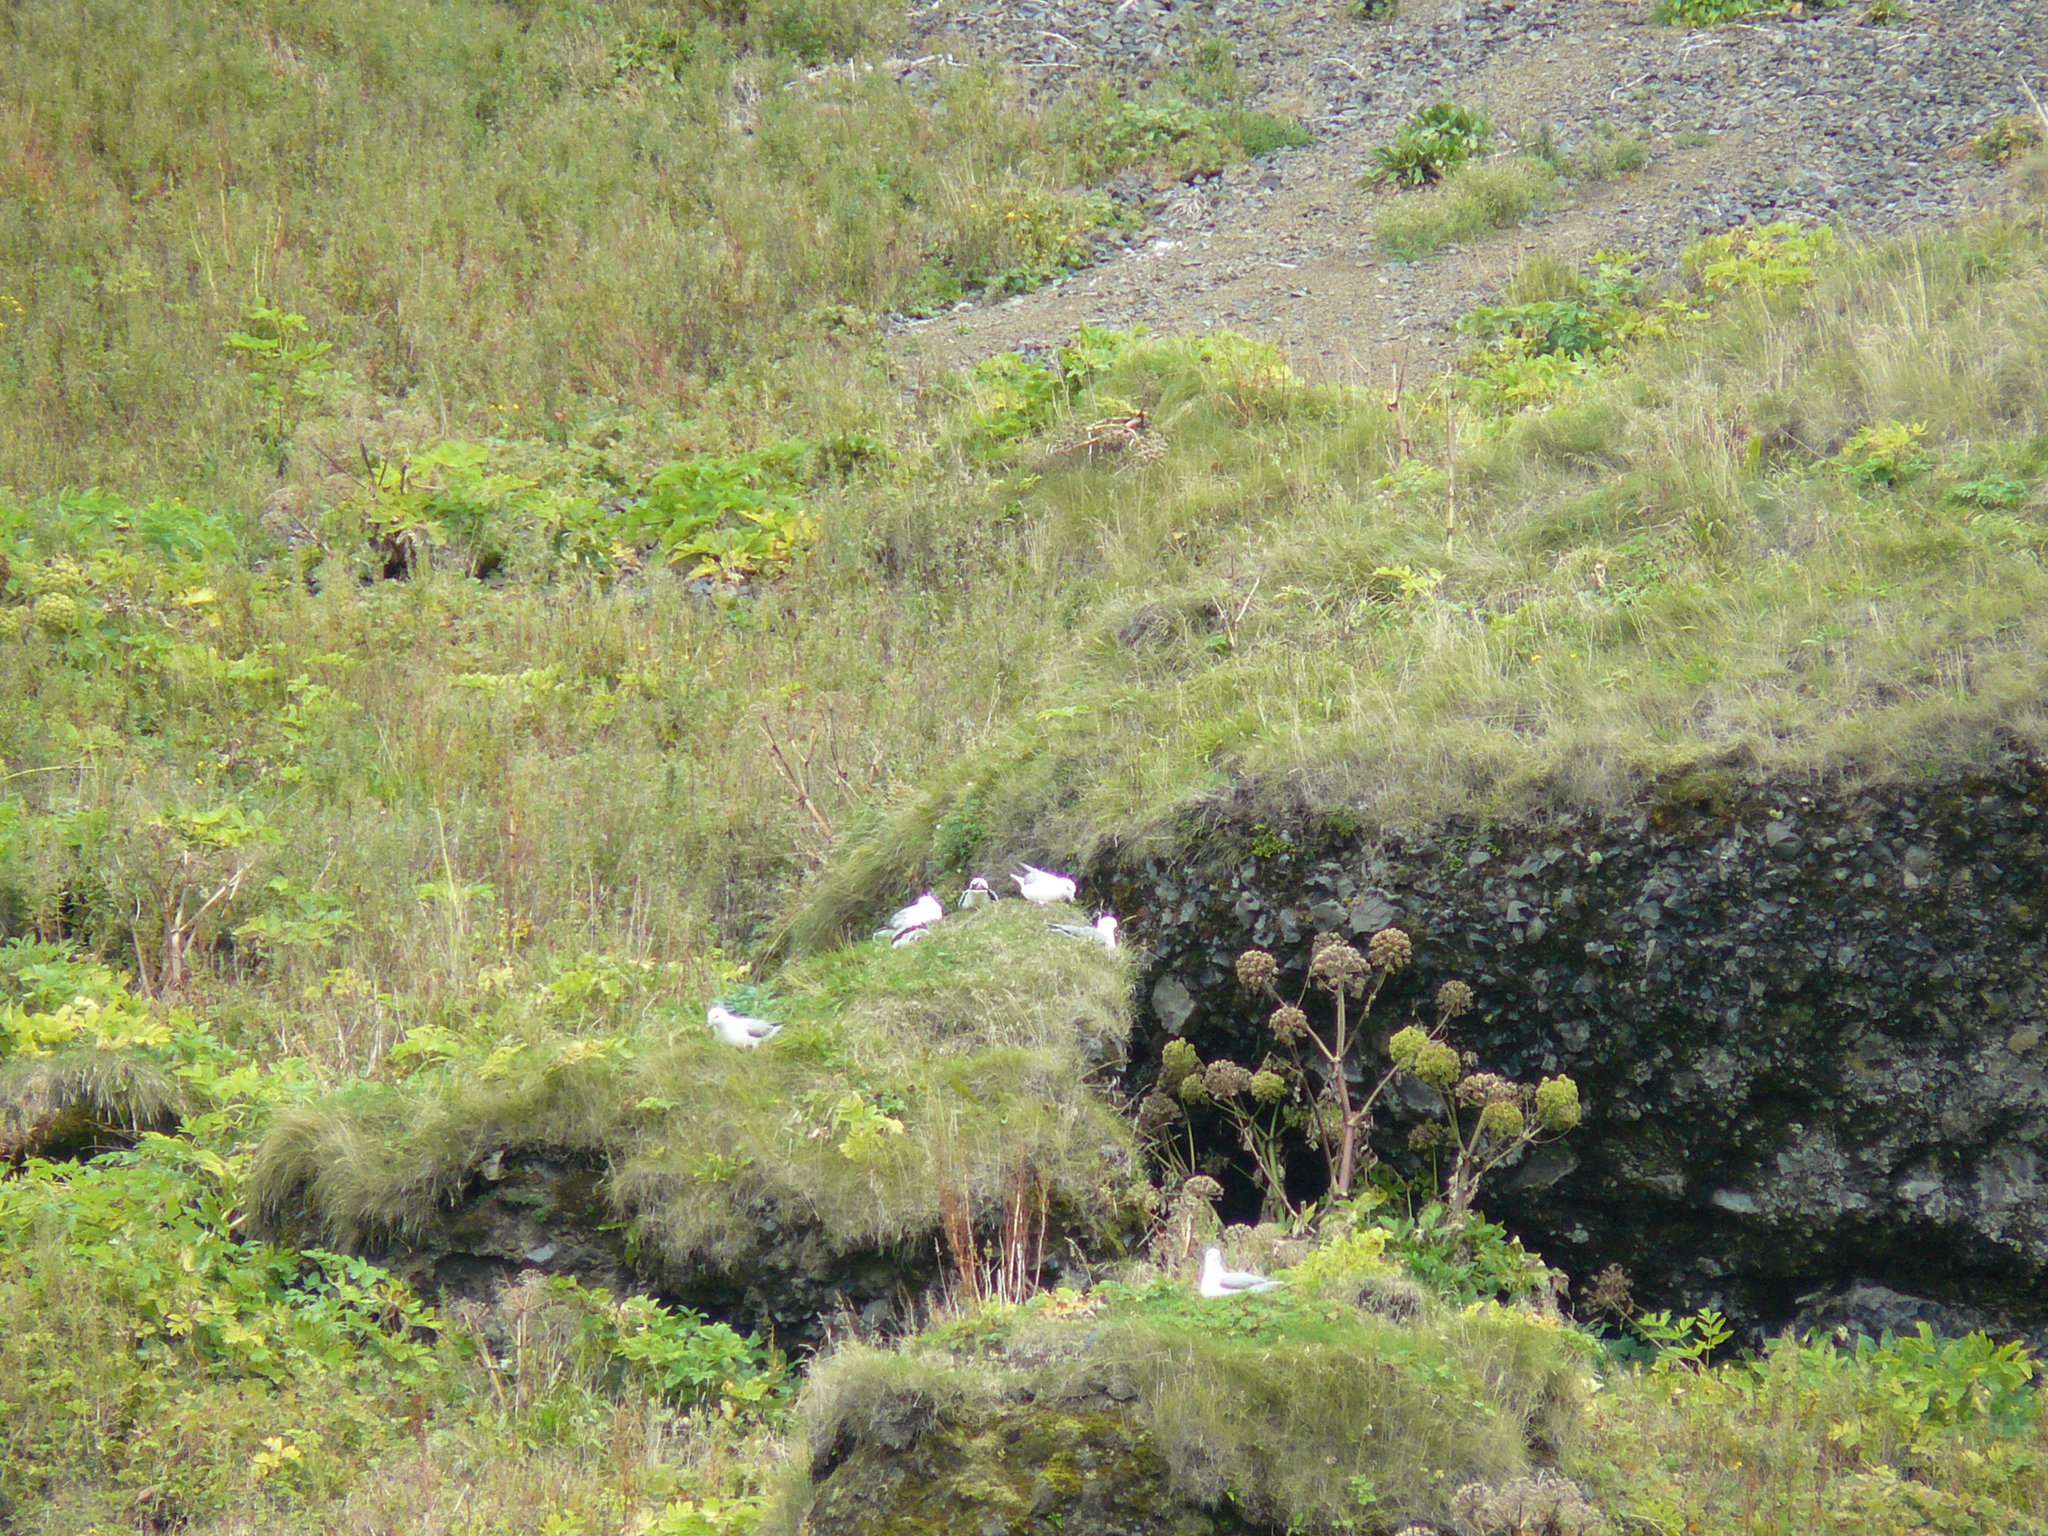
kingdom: Animalia
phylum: Chordata
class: Aves
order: Procellariiformes
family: Procellariidae
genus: Fulmarus
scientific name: Fulmarus glacialis
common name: Northern fulmar
